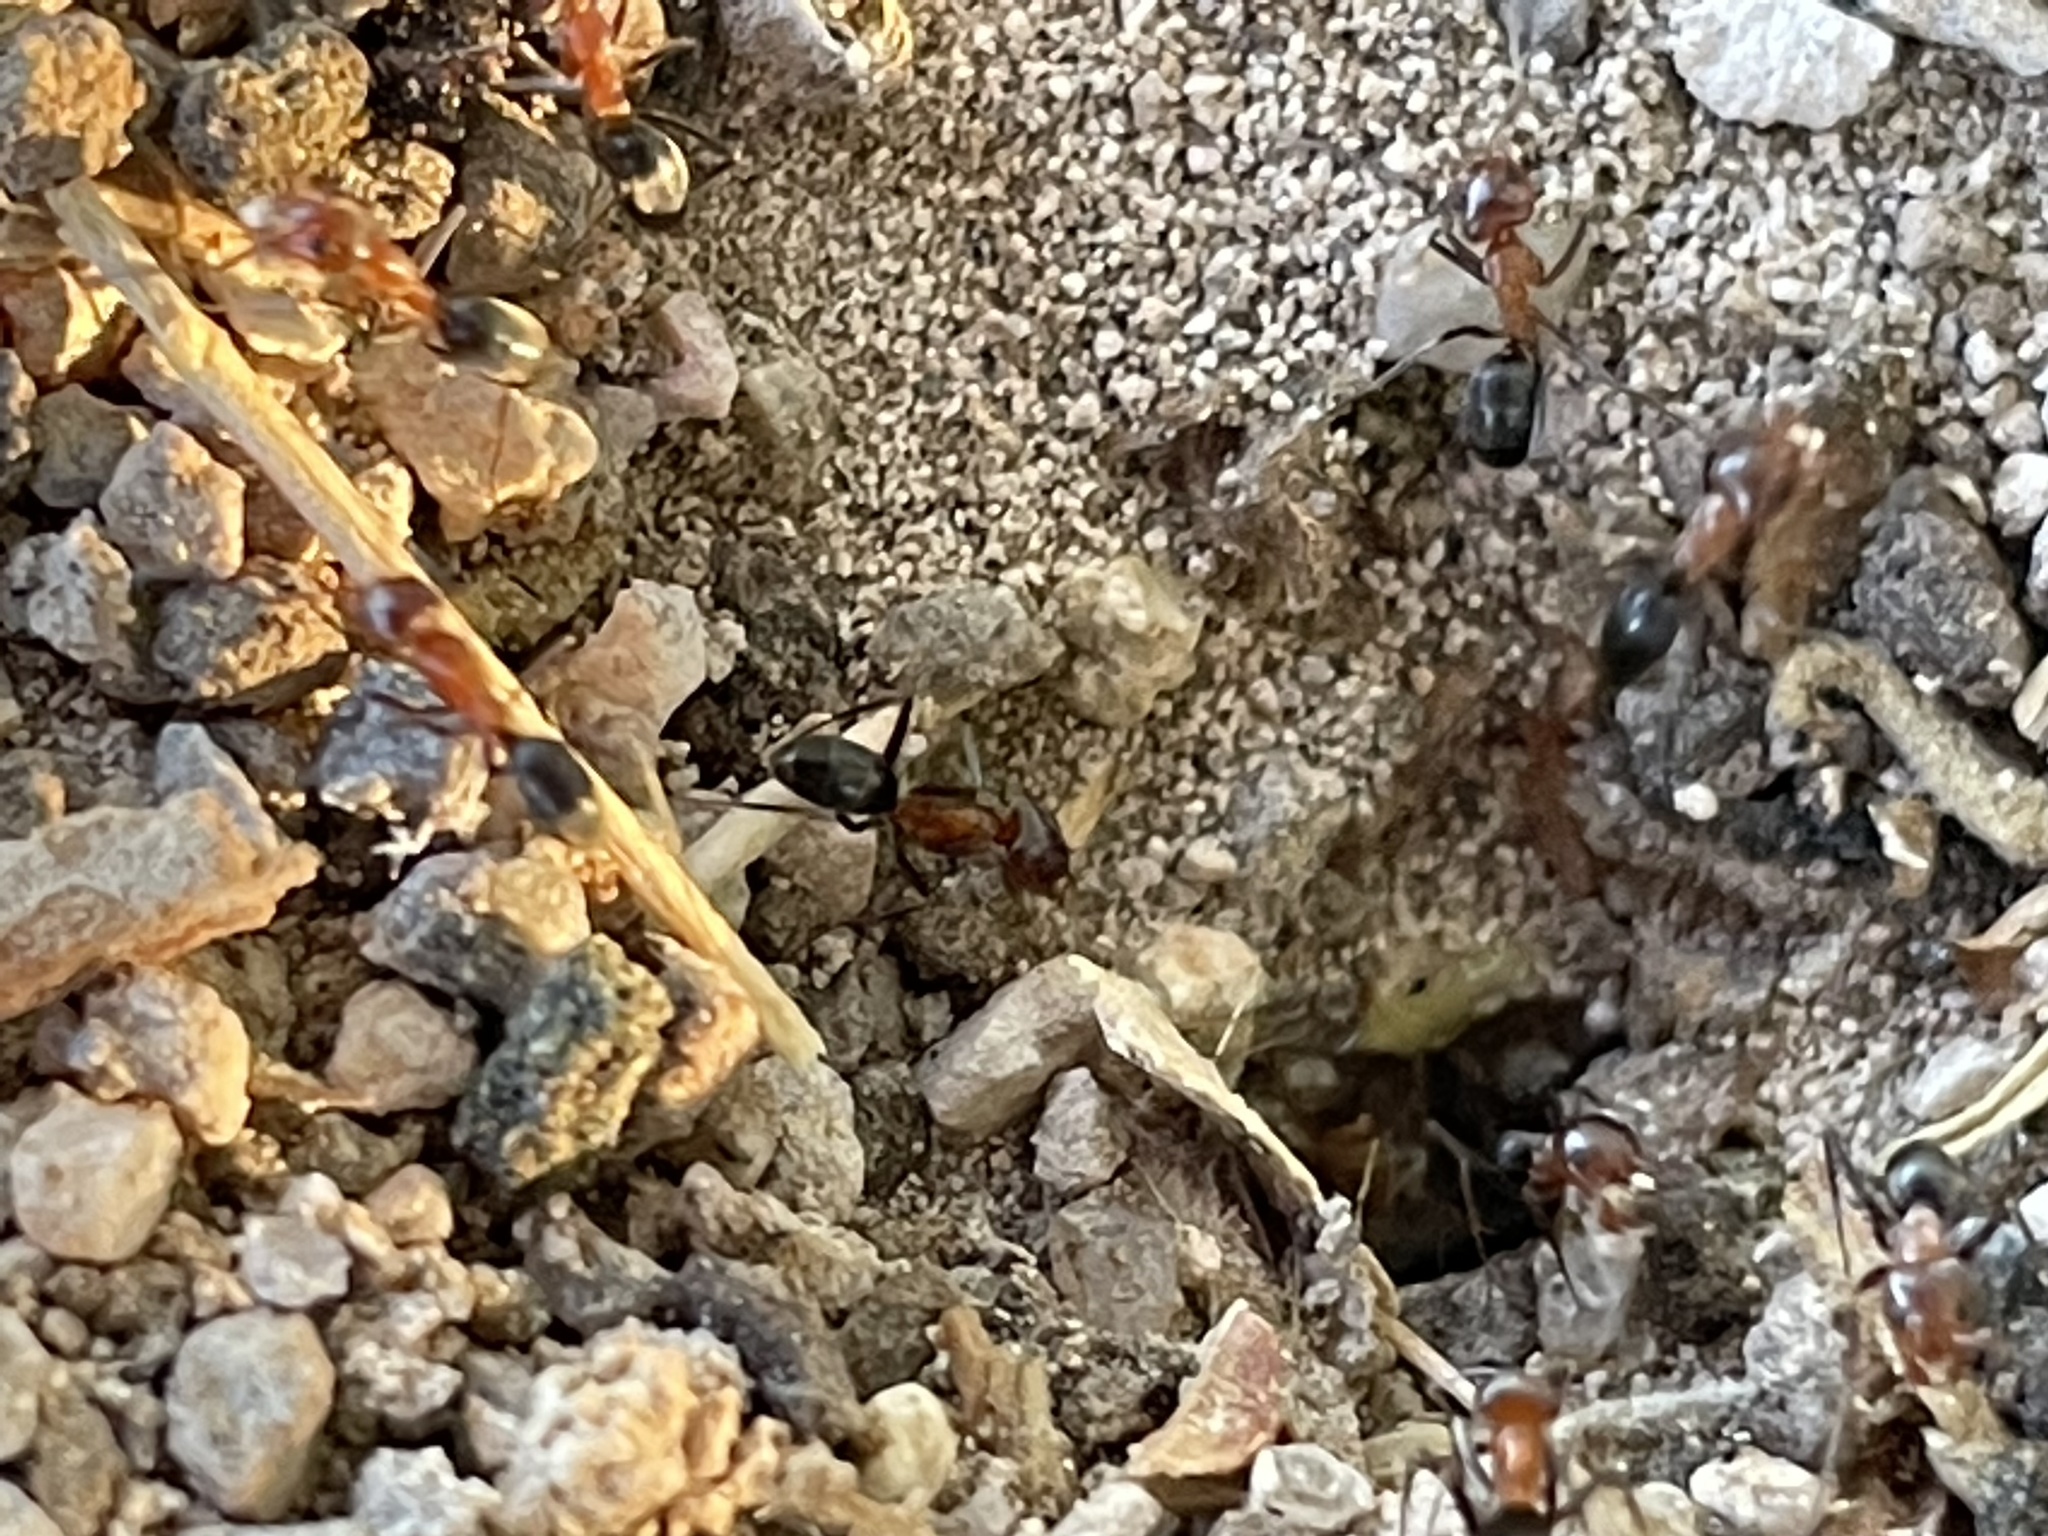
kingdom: Animalia
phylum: Arthropoda
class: Insecta
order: Hymenoptera
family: Formicidae
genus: Dorymyrmex
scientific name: Dorymyrmex bicolor
